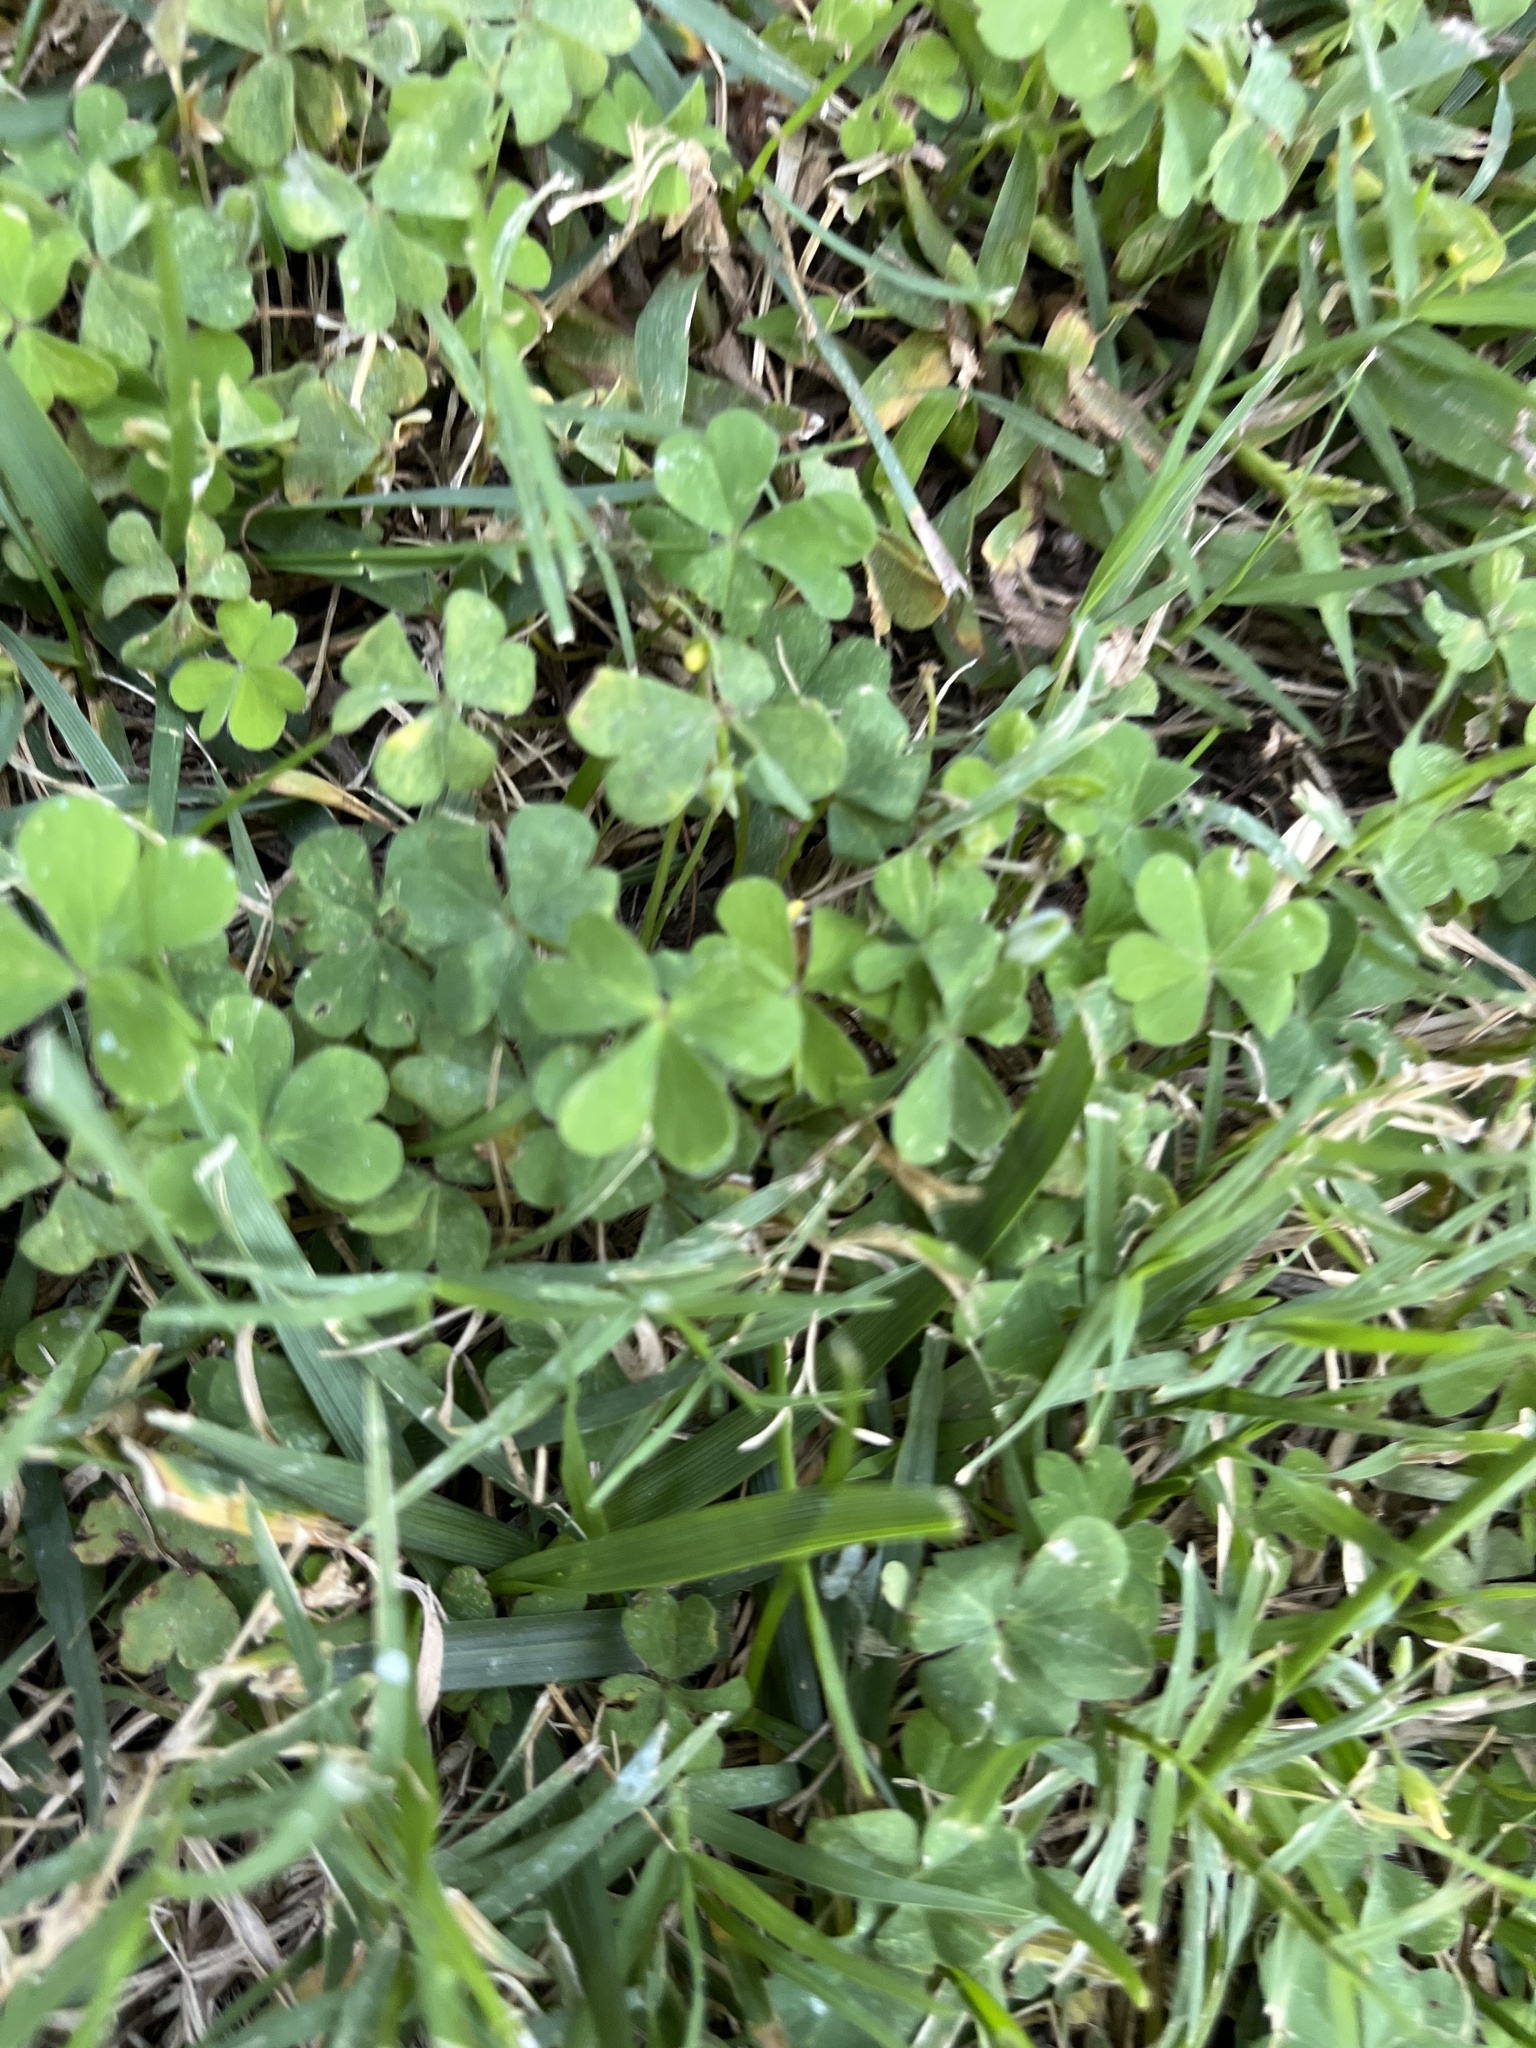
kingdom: Plantae
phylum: Tracheophyta
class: Magnoliopsida
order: Oxalidales
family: Oxalidaceae
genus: Oxalis
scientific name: Oxalis
